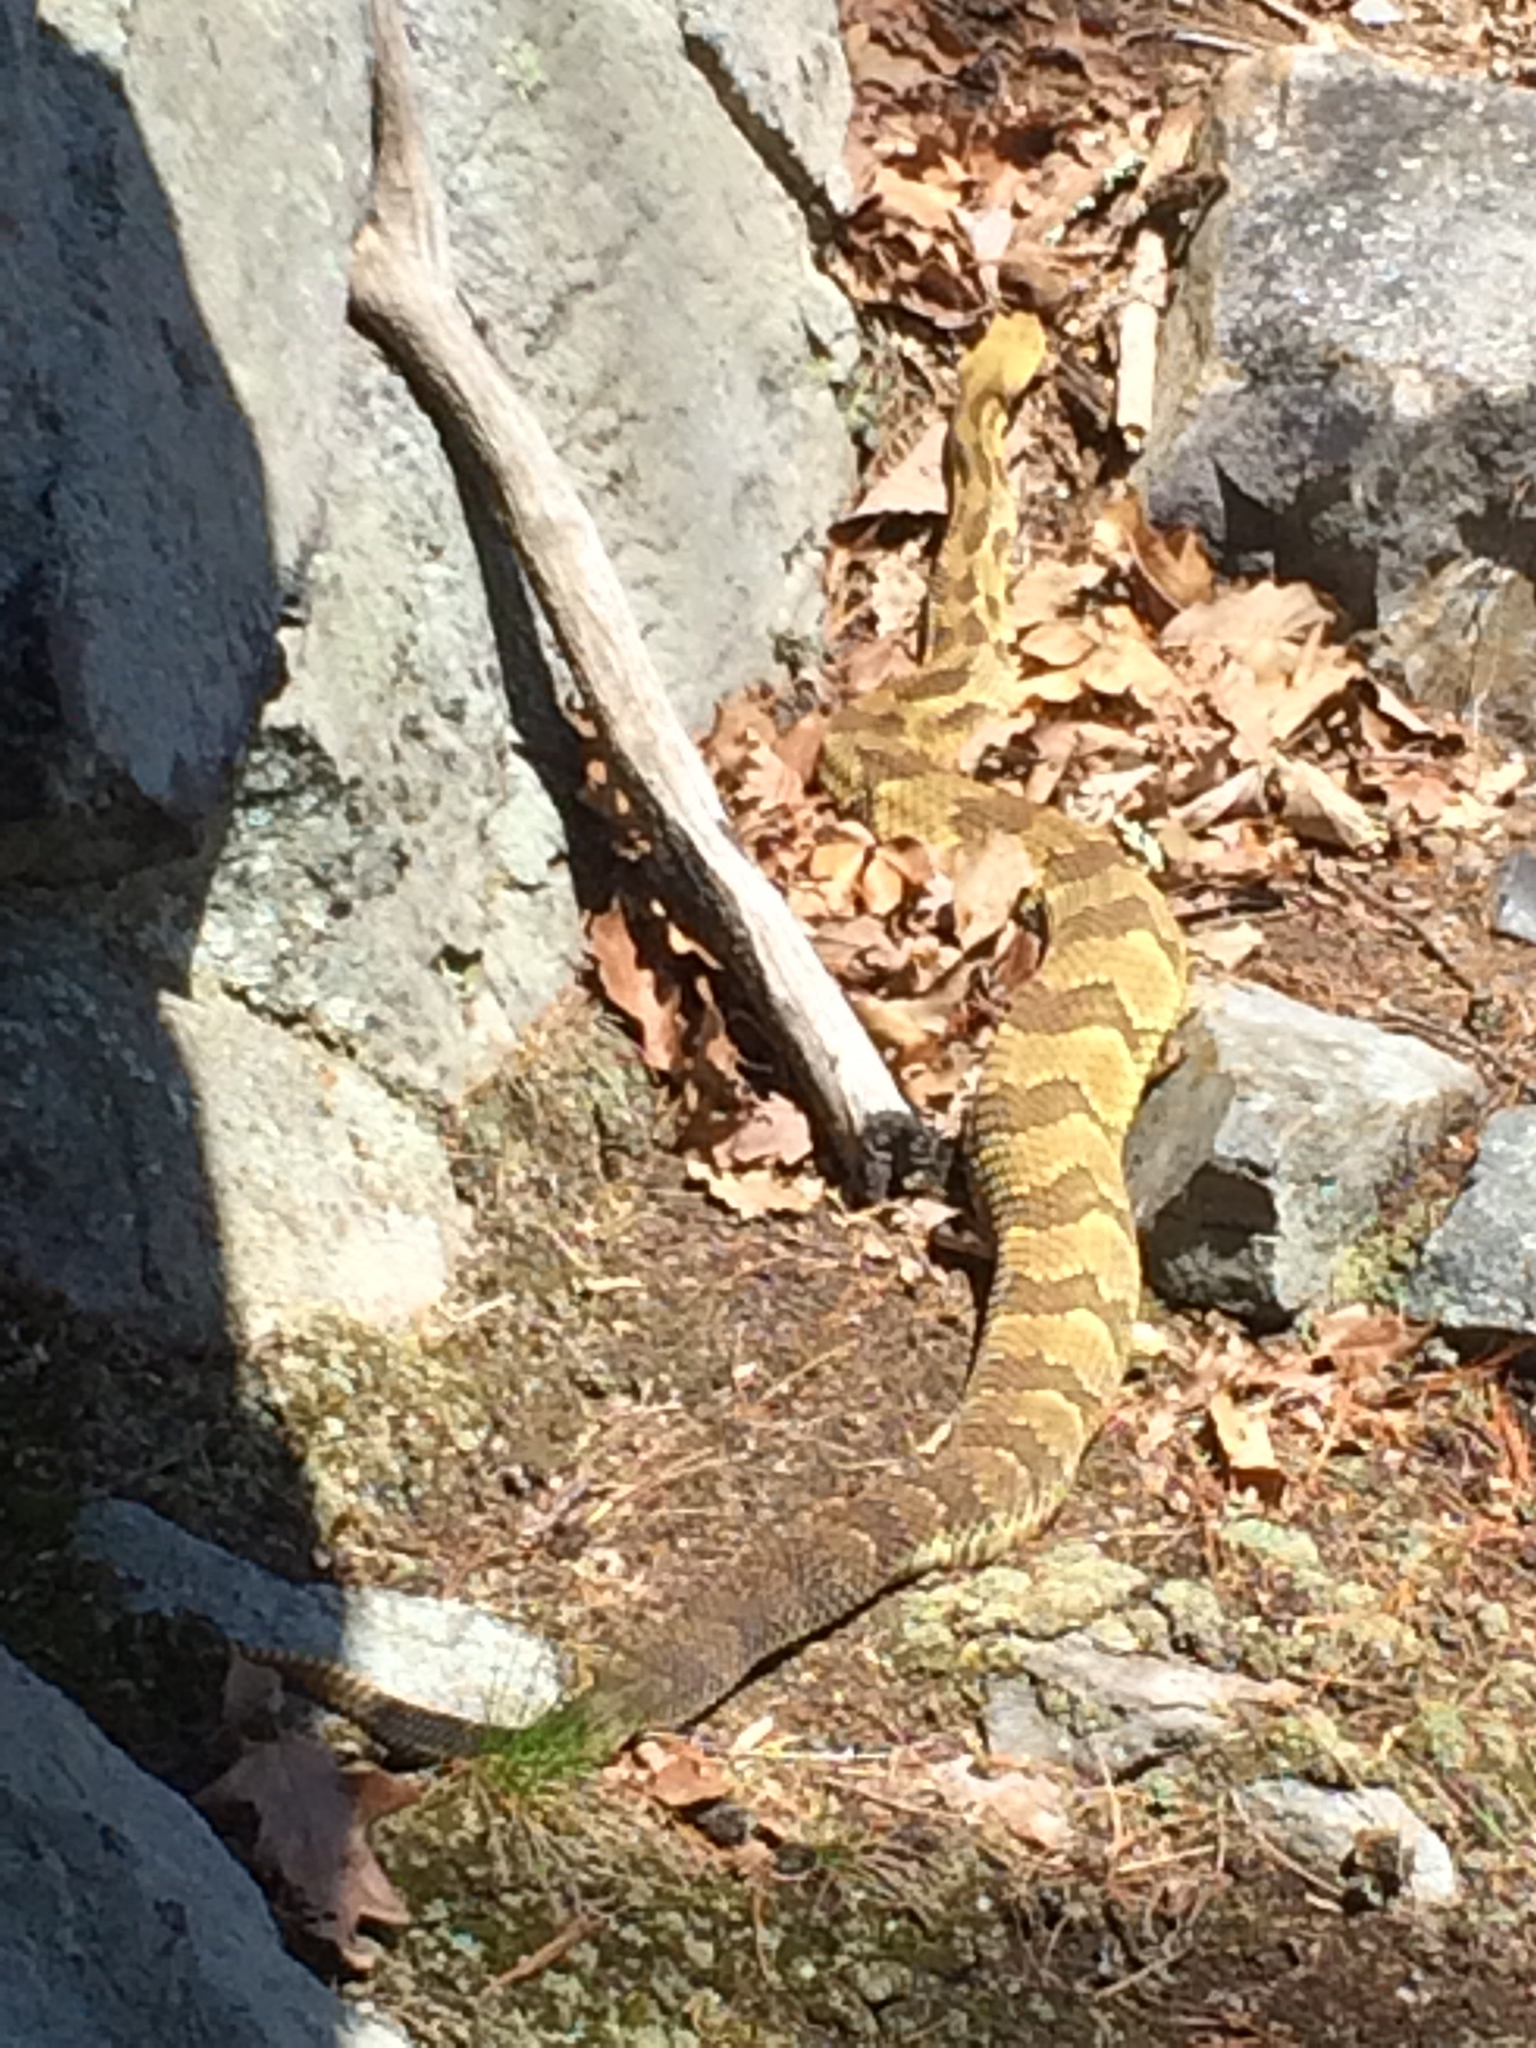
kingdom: Animalia
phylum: Chordata
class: Squamata
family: Viperidae
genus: Crotalus
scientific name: Crotalus horridus
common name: Timber rattlesnake
